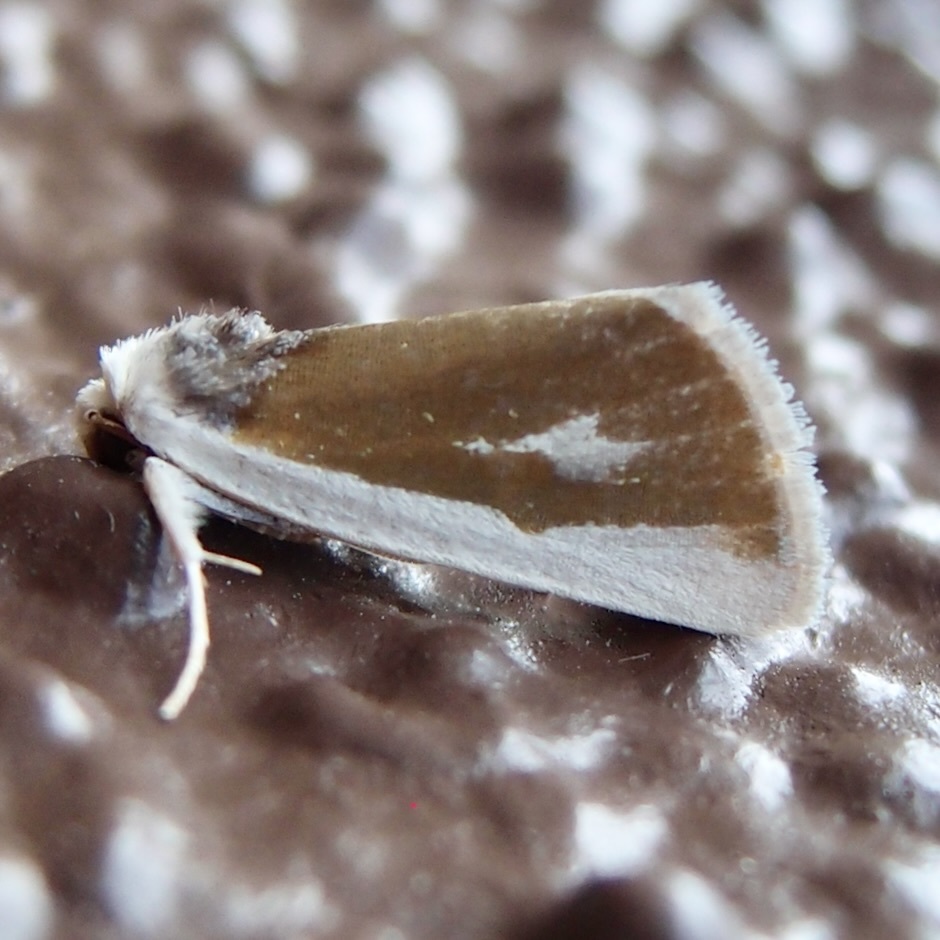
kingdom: Animalia
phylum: Arthropoda
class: Insecta
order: Lepidoptera
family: Noctuidae
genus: Neumoegenia
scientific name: Neumoegenia poetica
